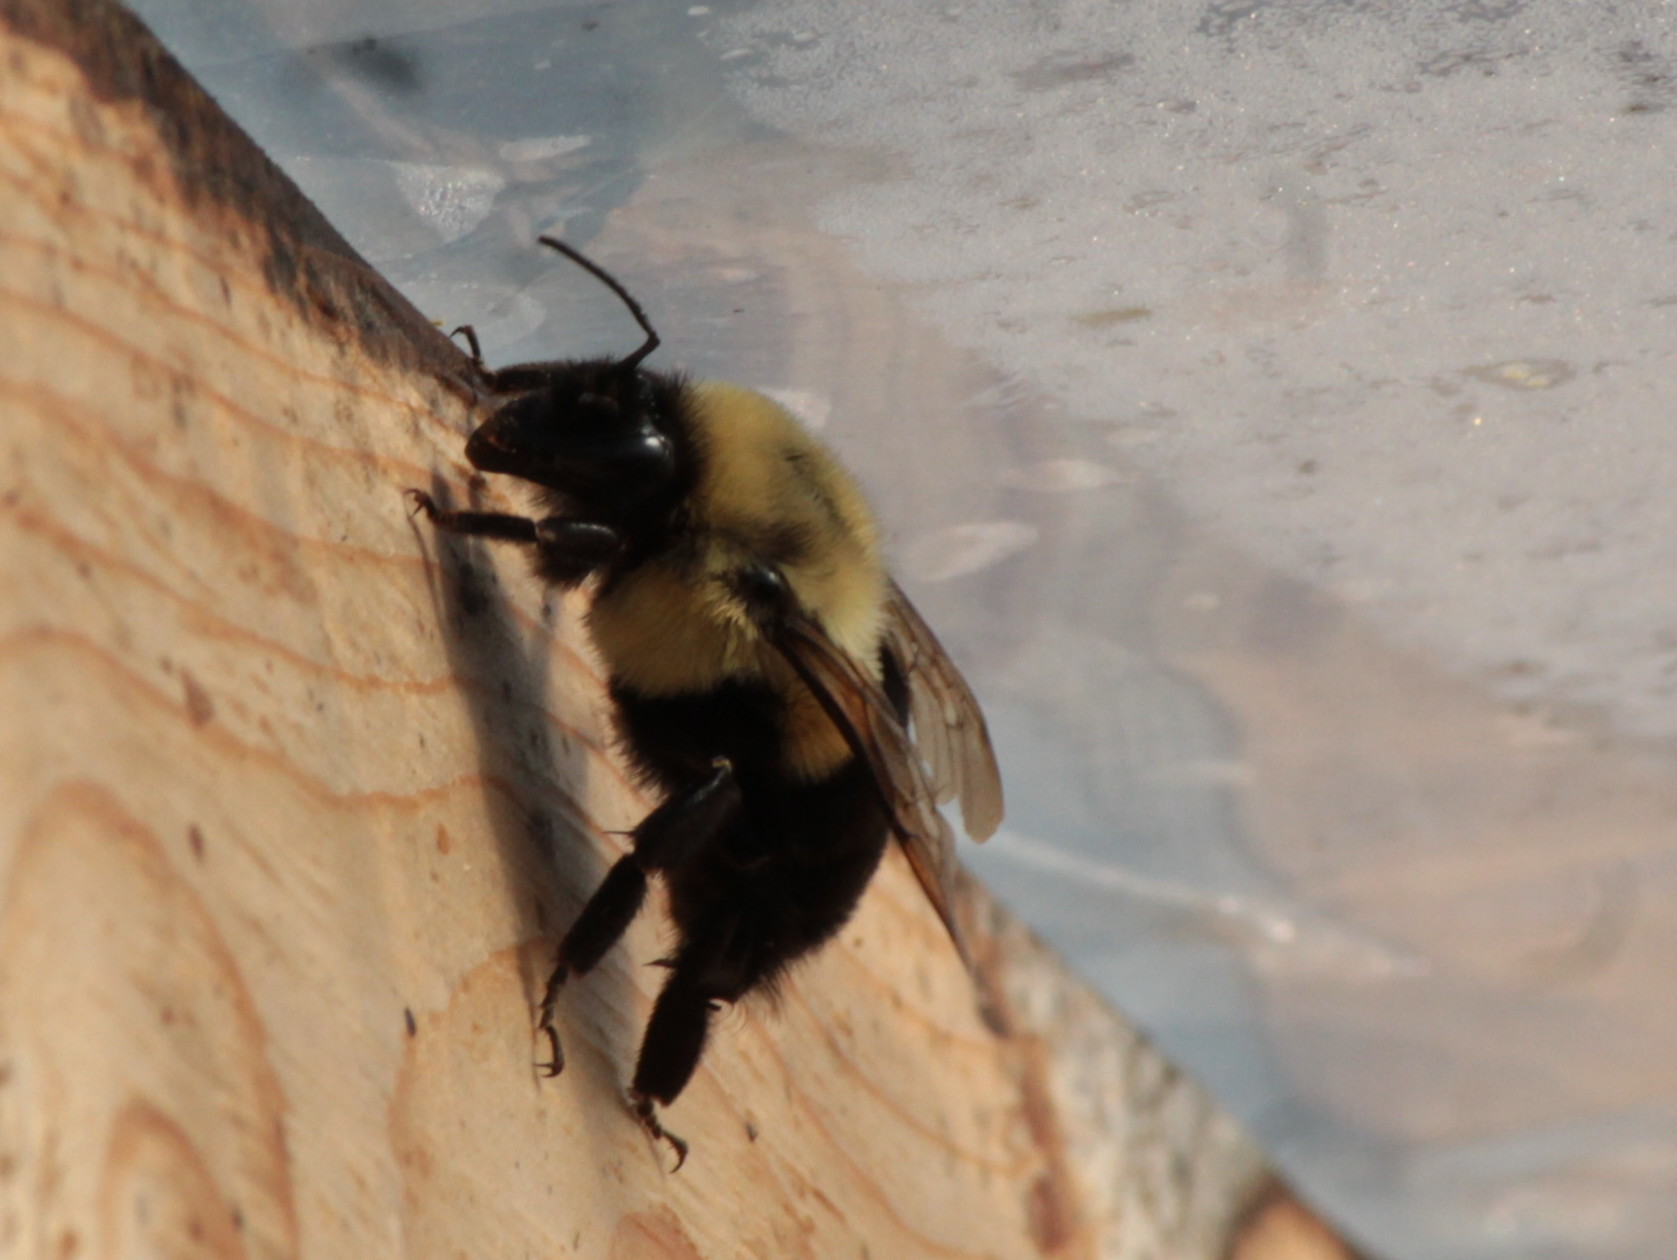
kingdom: Animalia
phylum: Arthropoda
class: Insecta
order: Hymenoptera
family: Apidae
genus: Bombus
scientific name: Bombus impatiens
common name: Common eastern bumble bee
